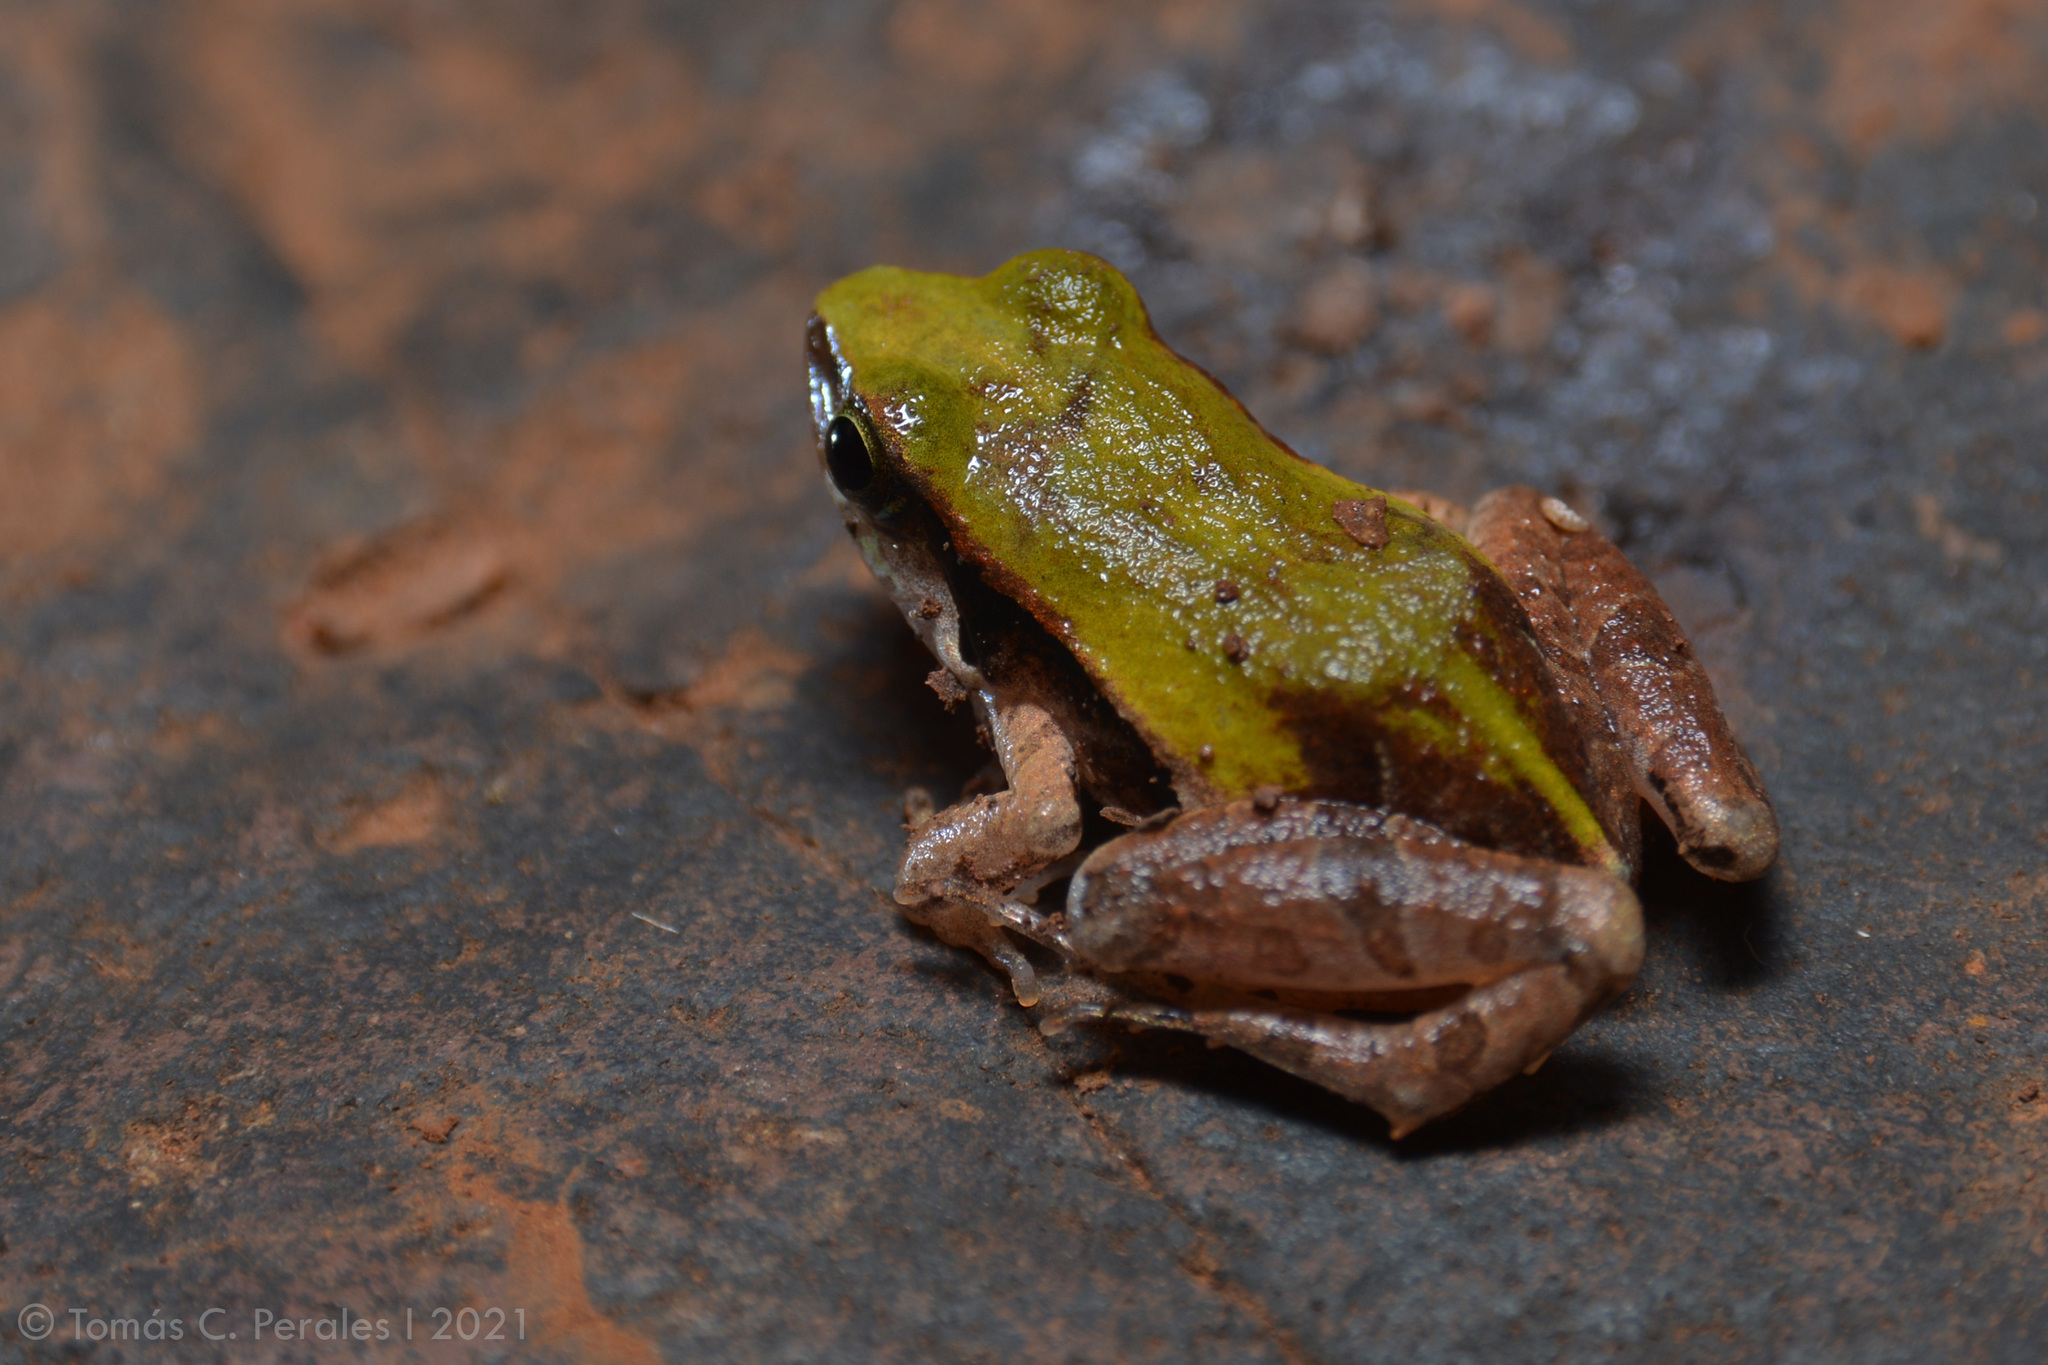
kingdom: Animalia
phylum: Chordata
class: Amphibia
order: Anura
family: Leptodactylidae
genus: Physalaemus
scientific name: Physalaemus cuvieri
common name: Barker frog
